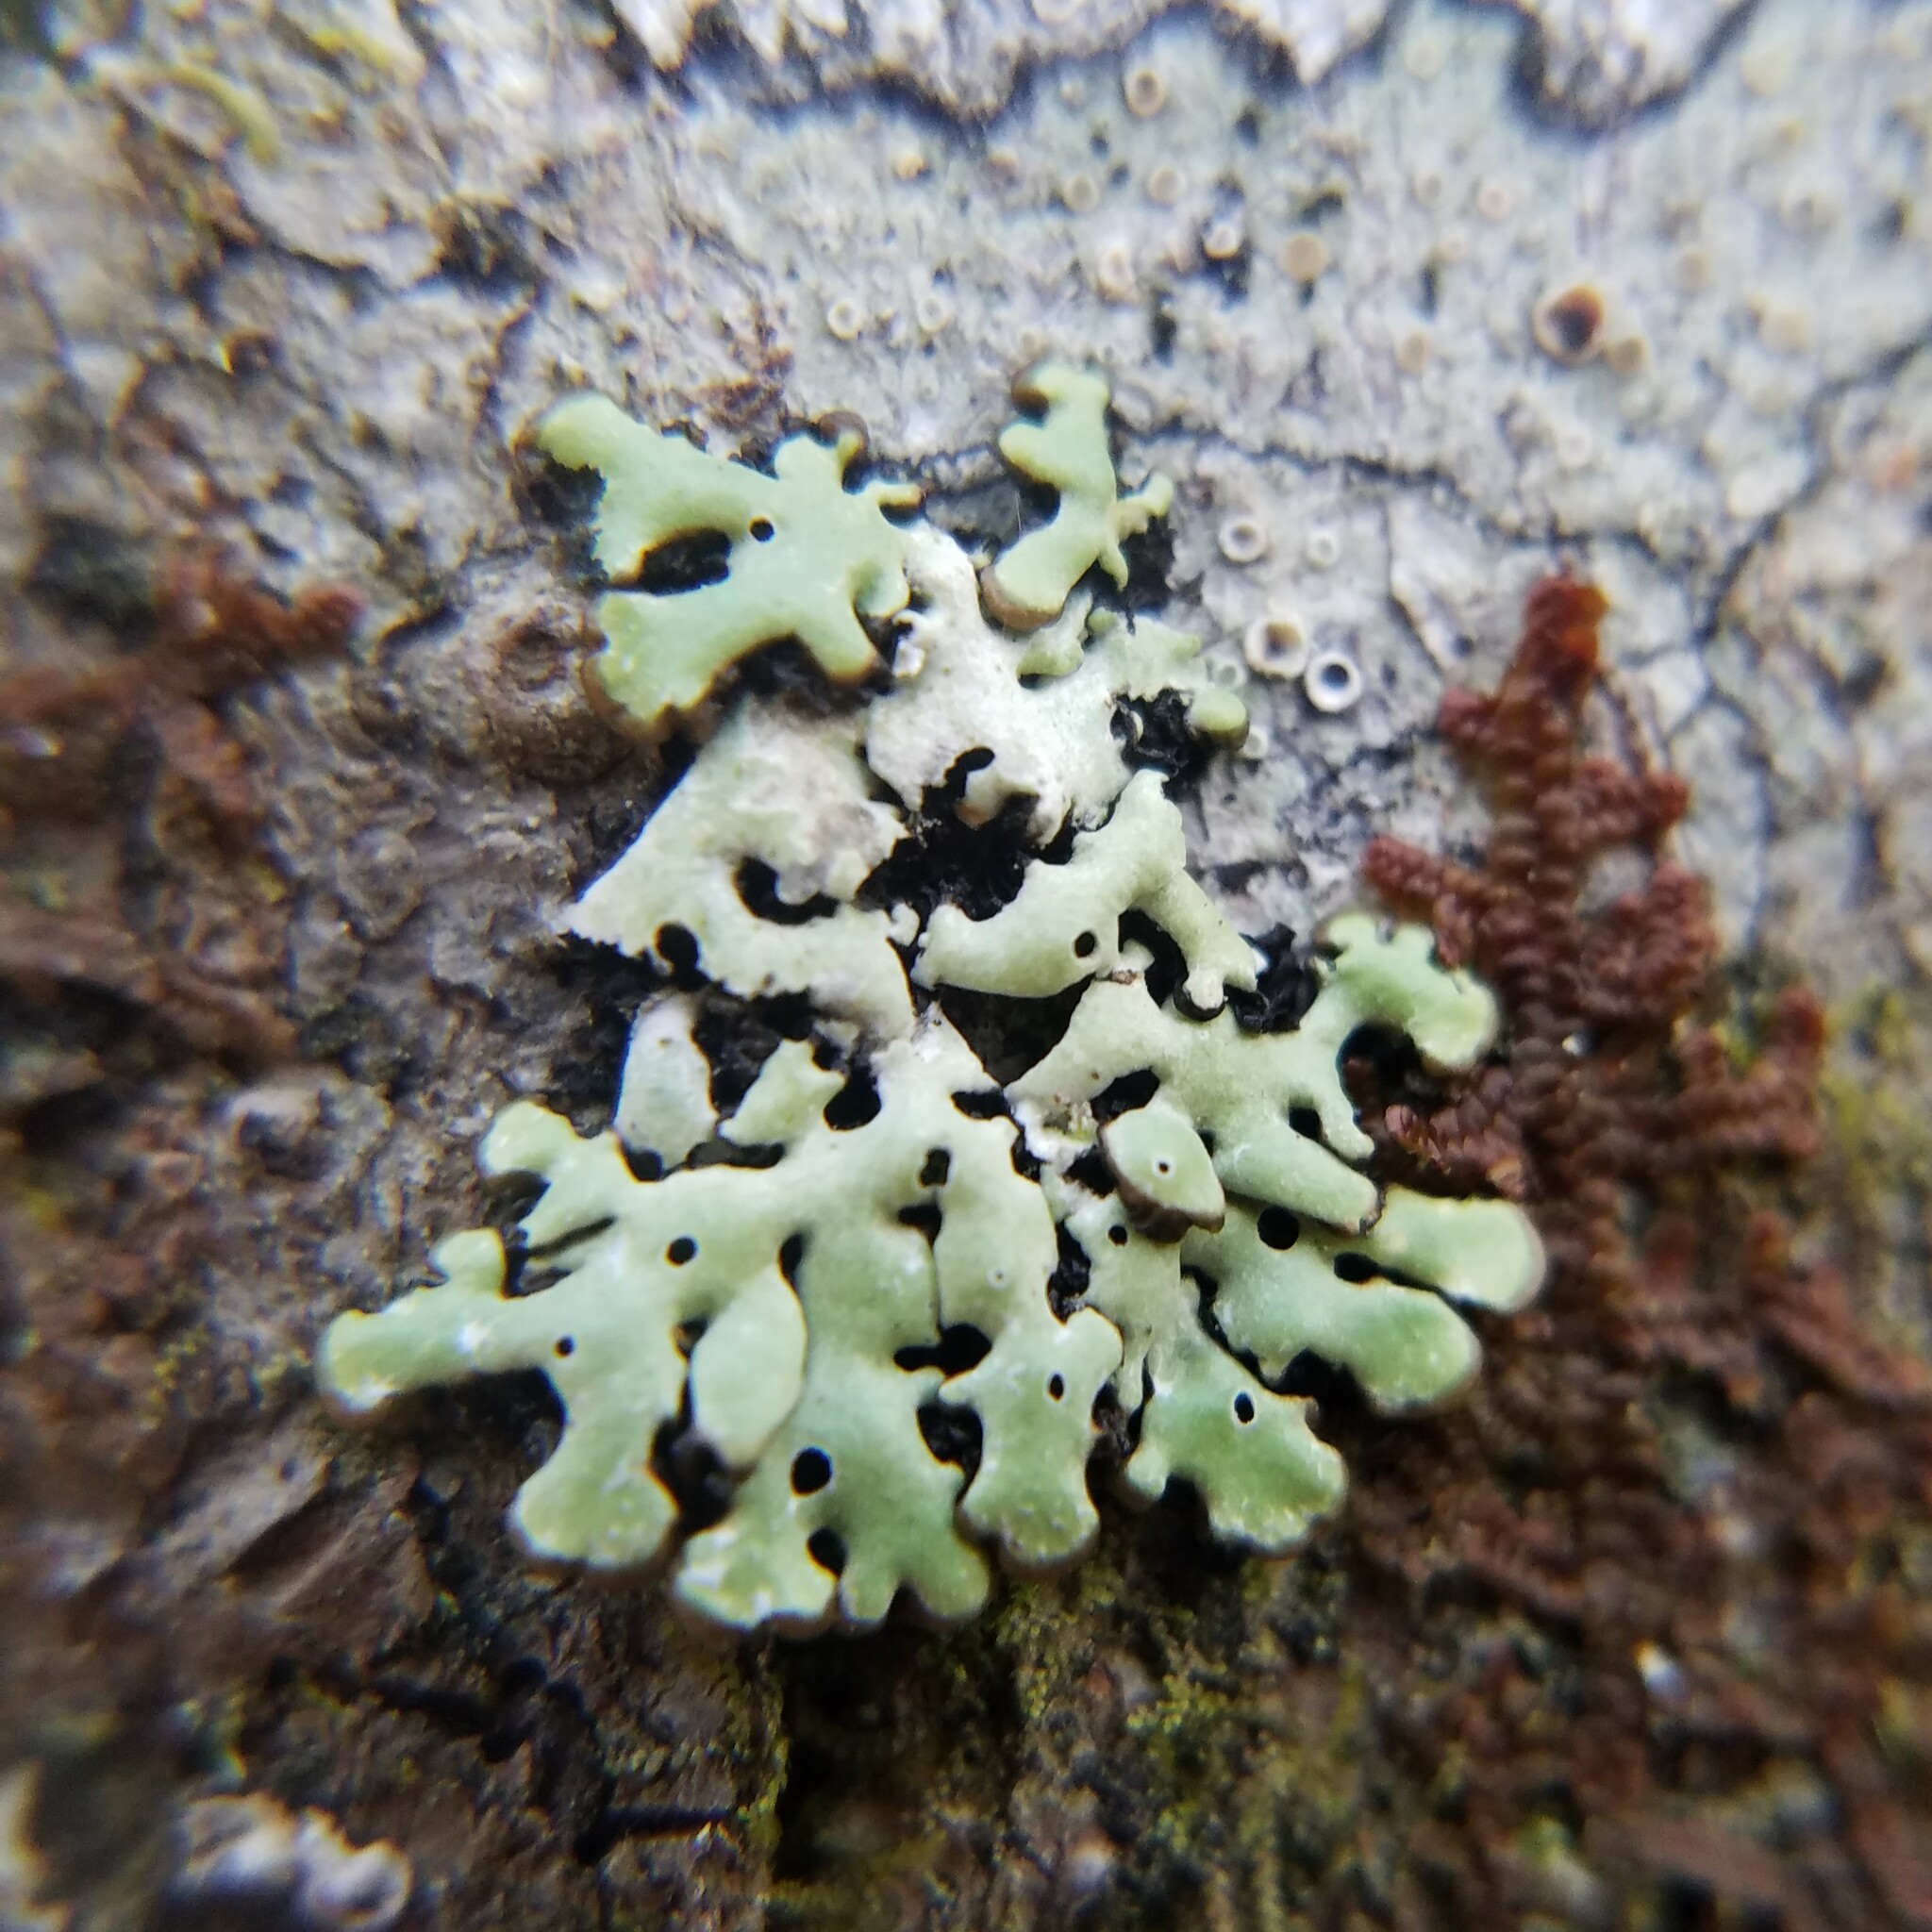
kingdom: Fungi
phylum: Ascomycota
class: Lecanoromycetes
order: Lecanorales
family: Parmeliaceae
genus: Menegazzia
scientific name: Menegazzia subsimilis
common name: Tree flute lichen
